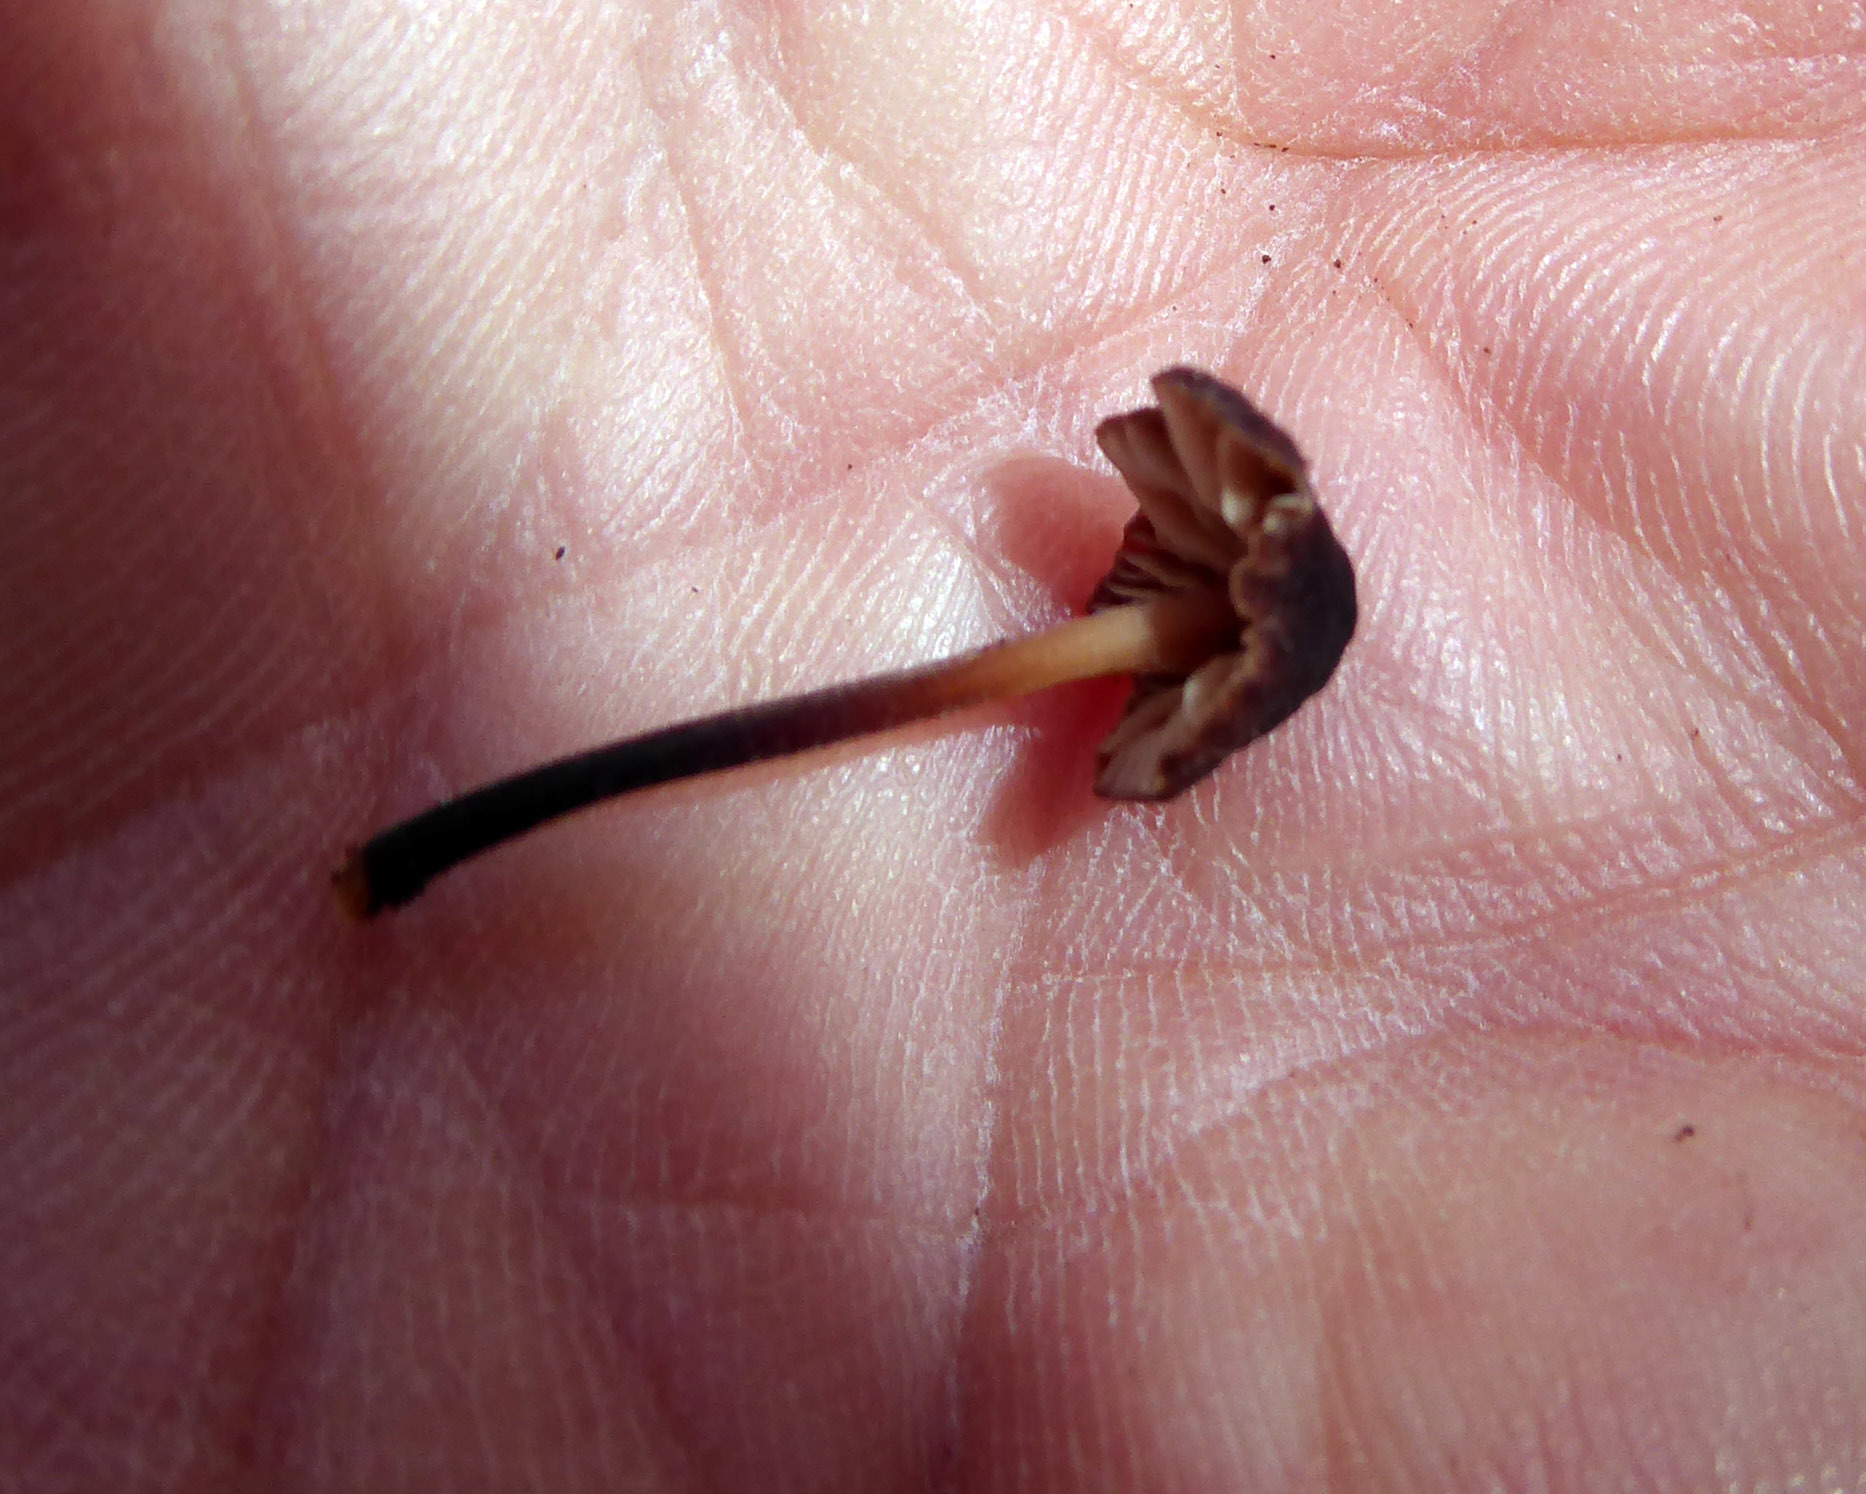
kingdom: Fungi
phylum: Basidiomycota
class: Agaricomycetes
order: Agaricales
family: Omphalotaceae
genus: Gymnopus
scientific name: Gymnopus ceraceicola
